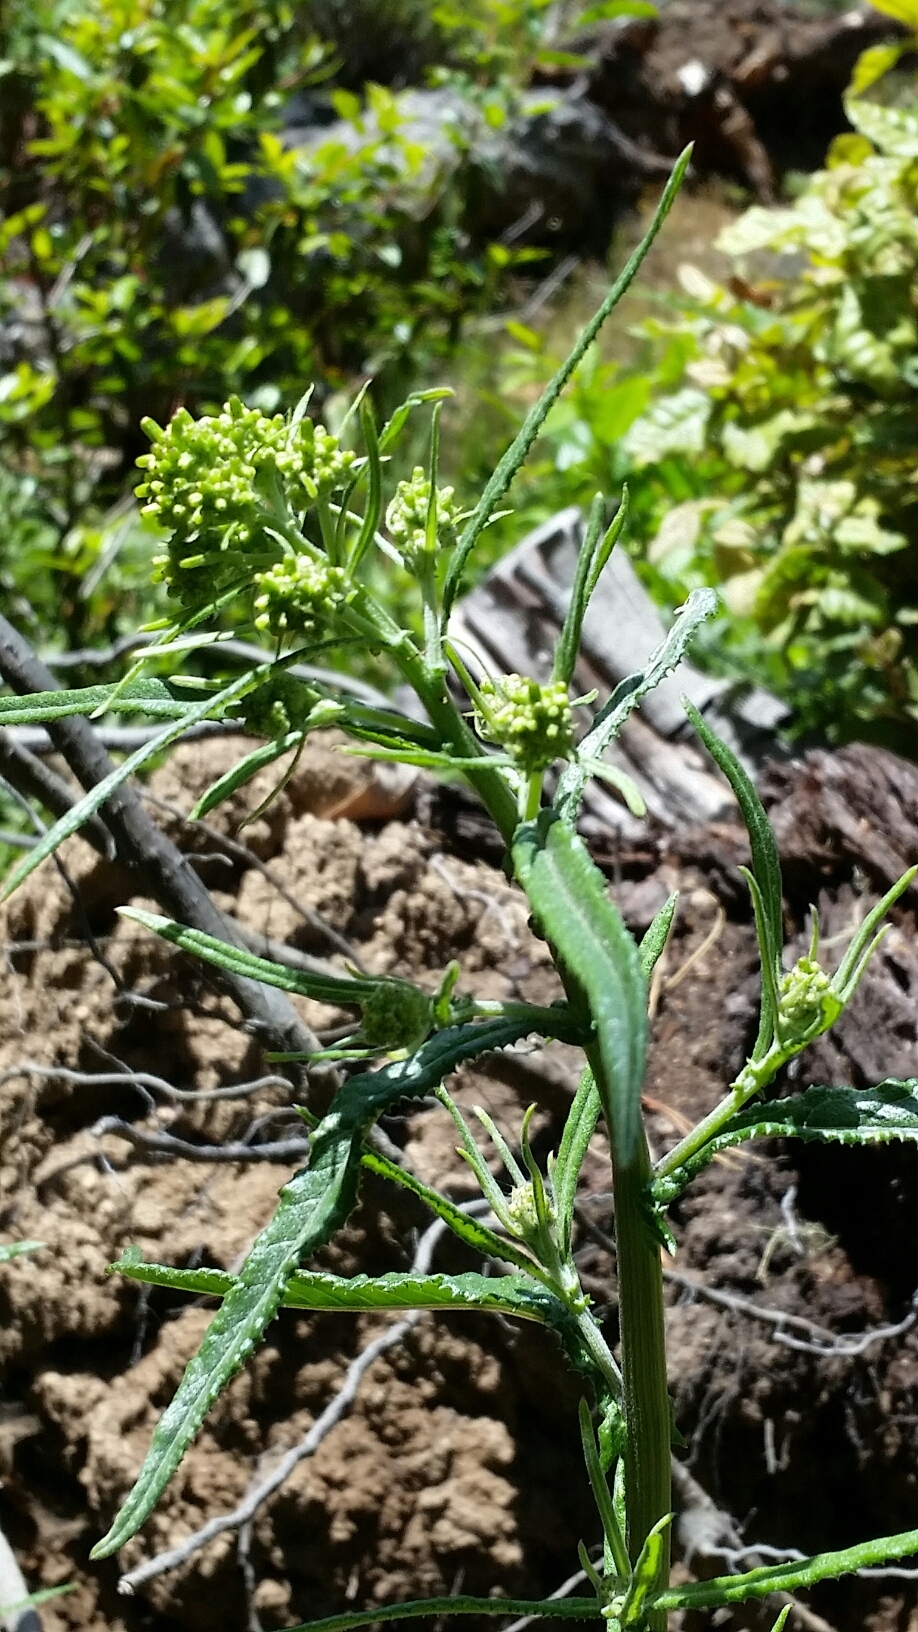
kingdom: Plantae
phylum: Tracheophyta
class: Magnoliopsida
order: Asterales
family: Asteraceae
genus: Senecio
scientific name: Senecio minimus
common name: Toothed fireweed
